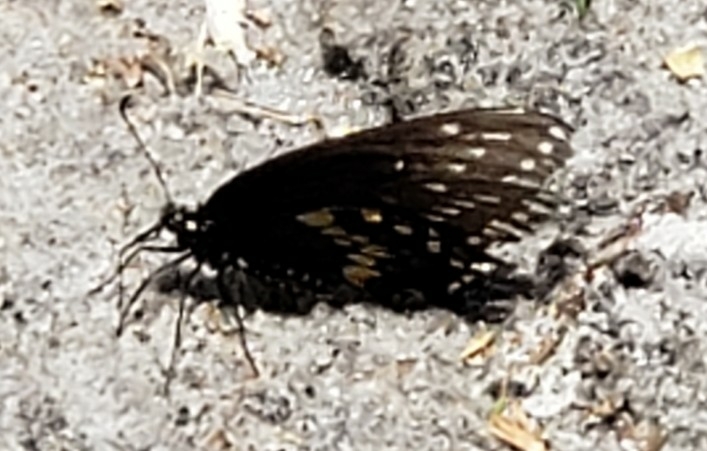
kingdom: Animalia
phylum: Arthropoda
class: Insecta
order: Lepidoptera
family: Papilionidae
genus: Papilio
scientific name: Papilio polyxenes
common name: Black swallowtail
